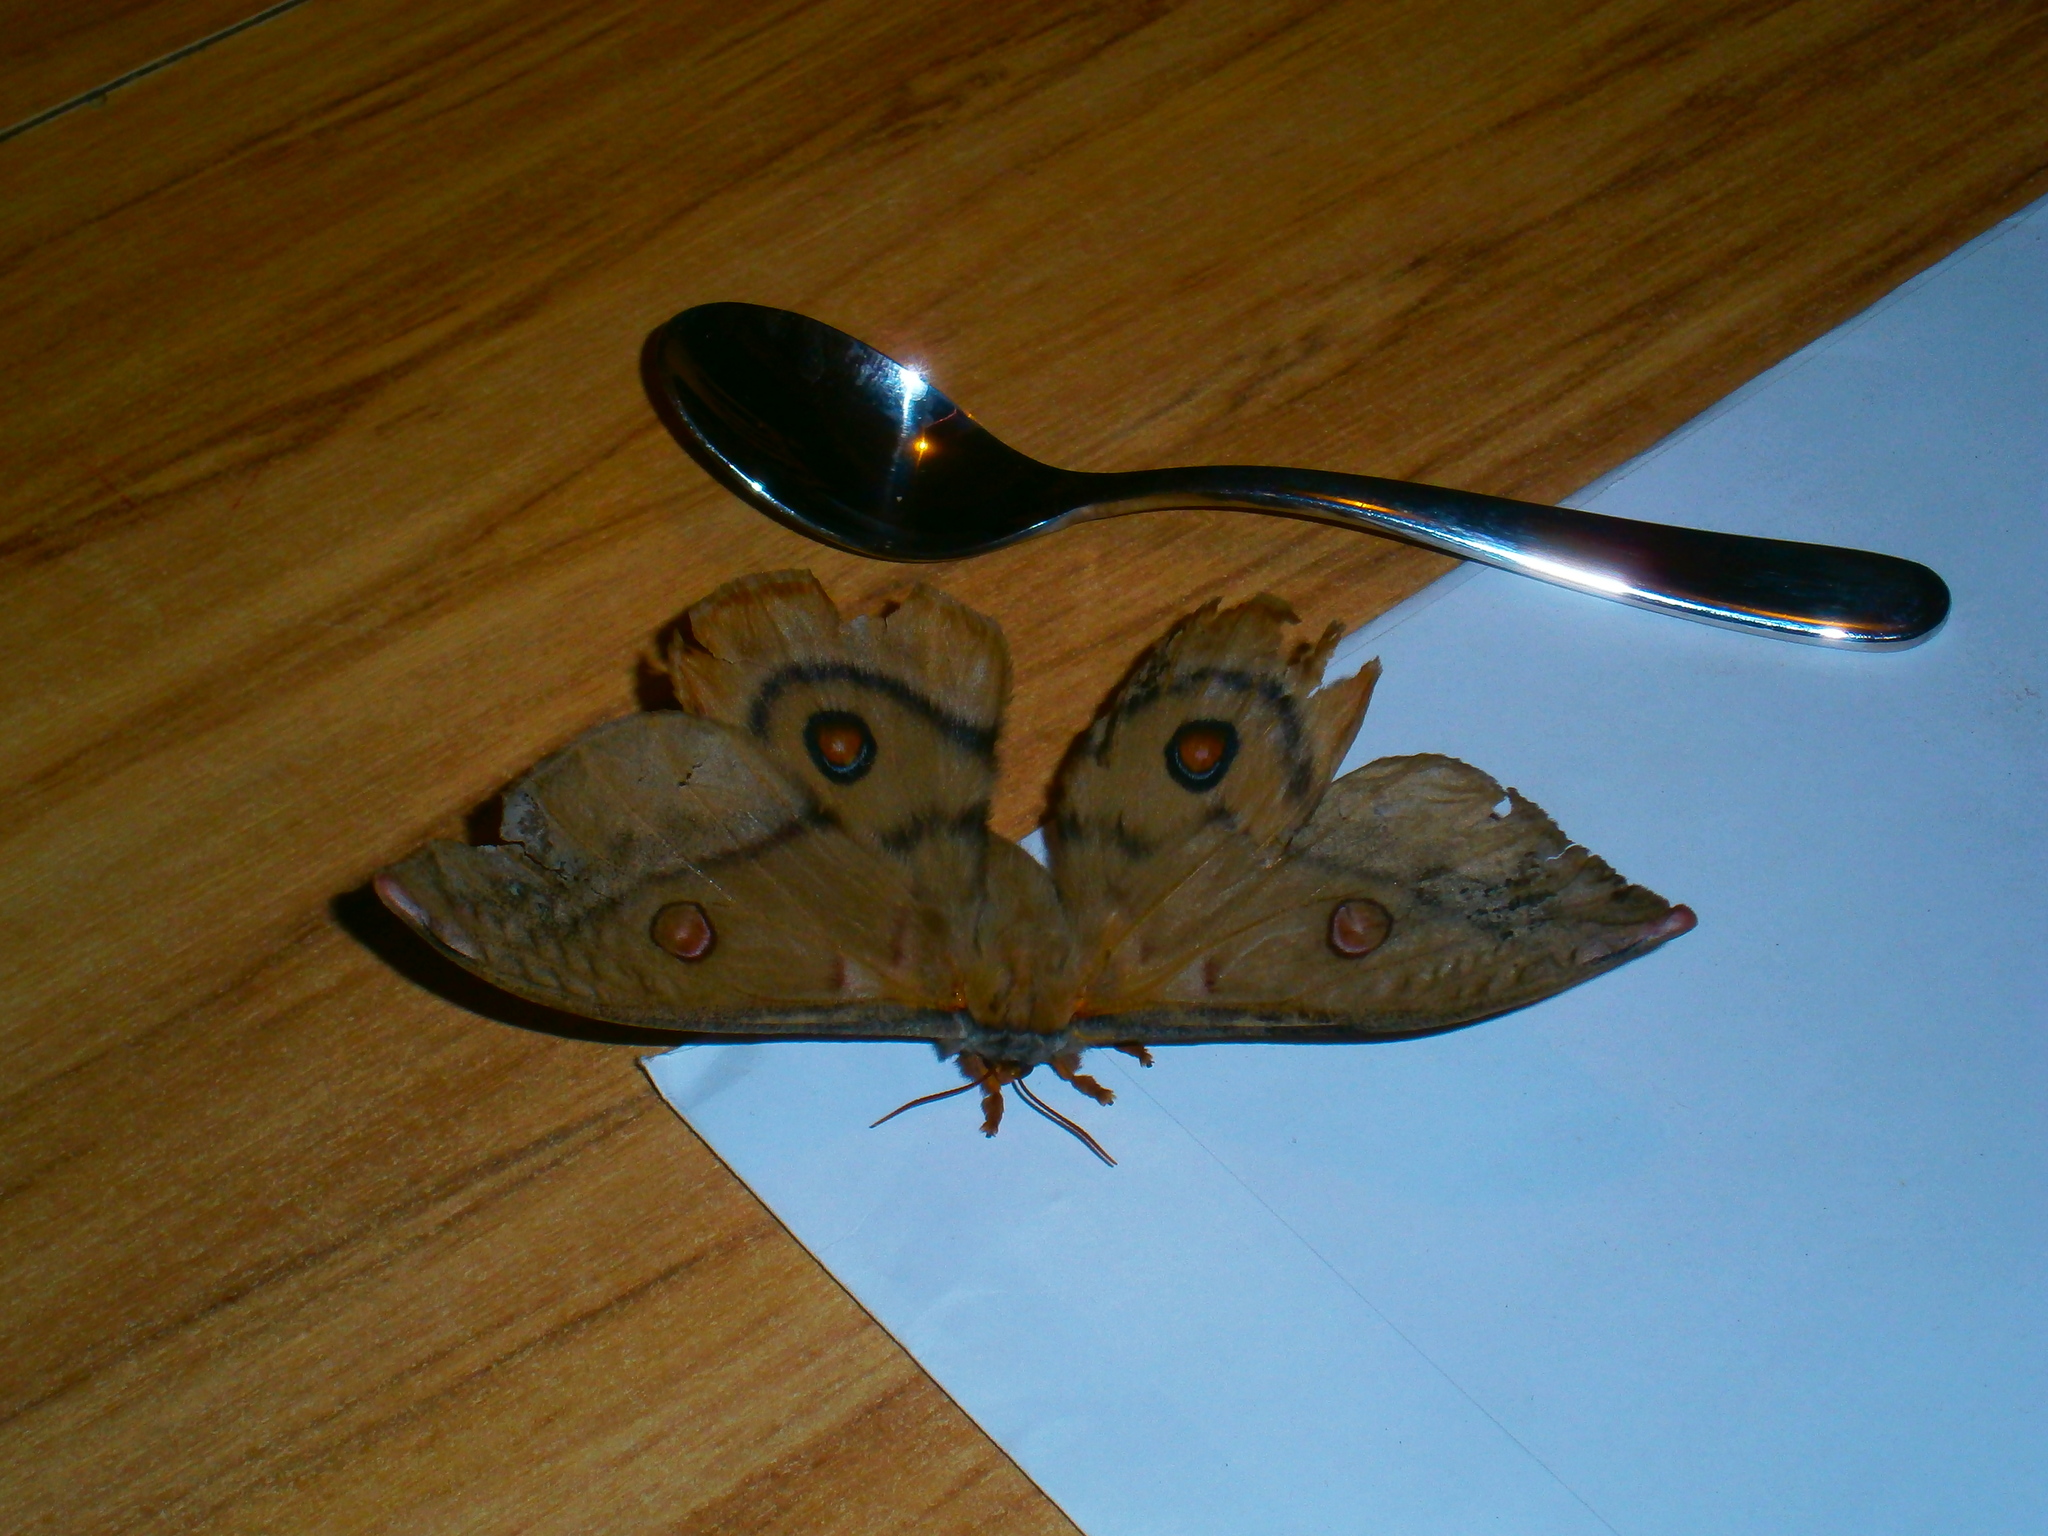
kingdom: Animalia
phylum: Arthropoda
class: Insecta
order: Lepidoptera
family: Saturniidae
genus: Opodiphthera
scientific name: Opodiphthera
